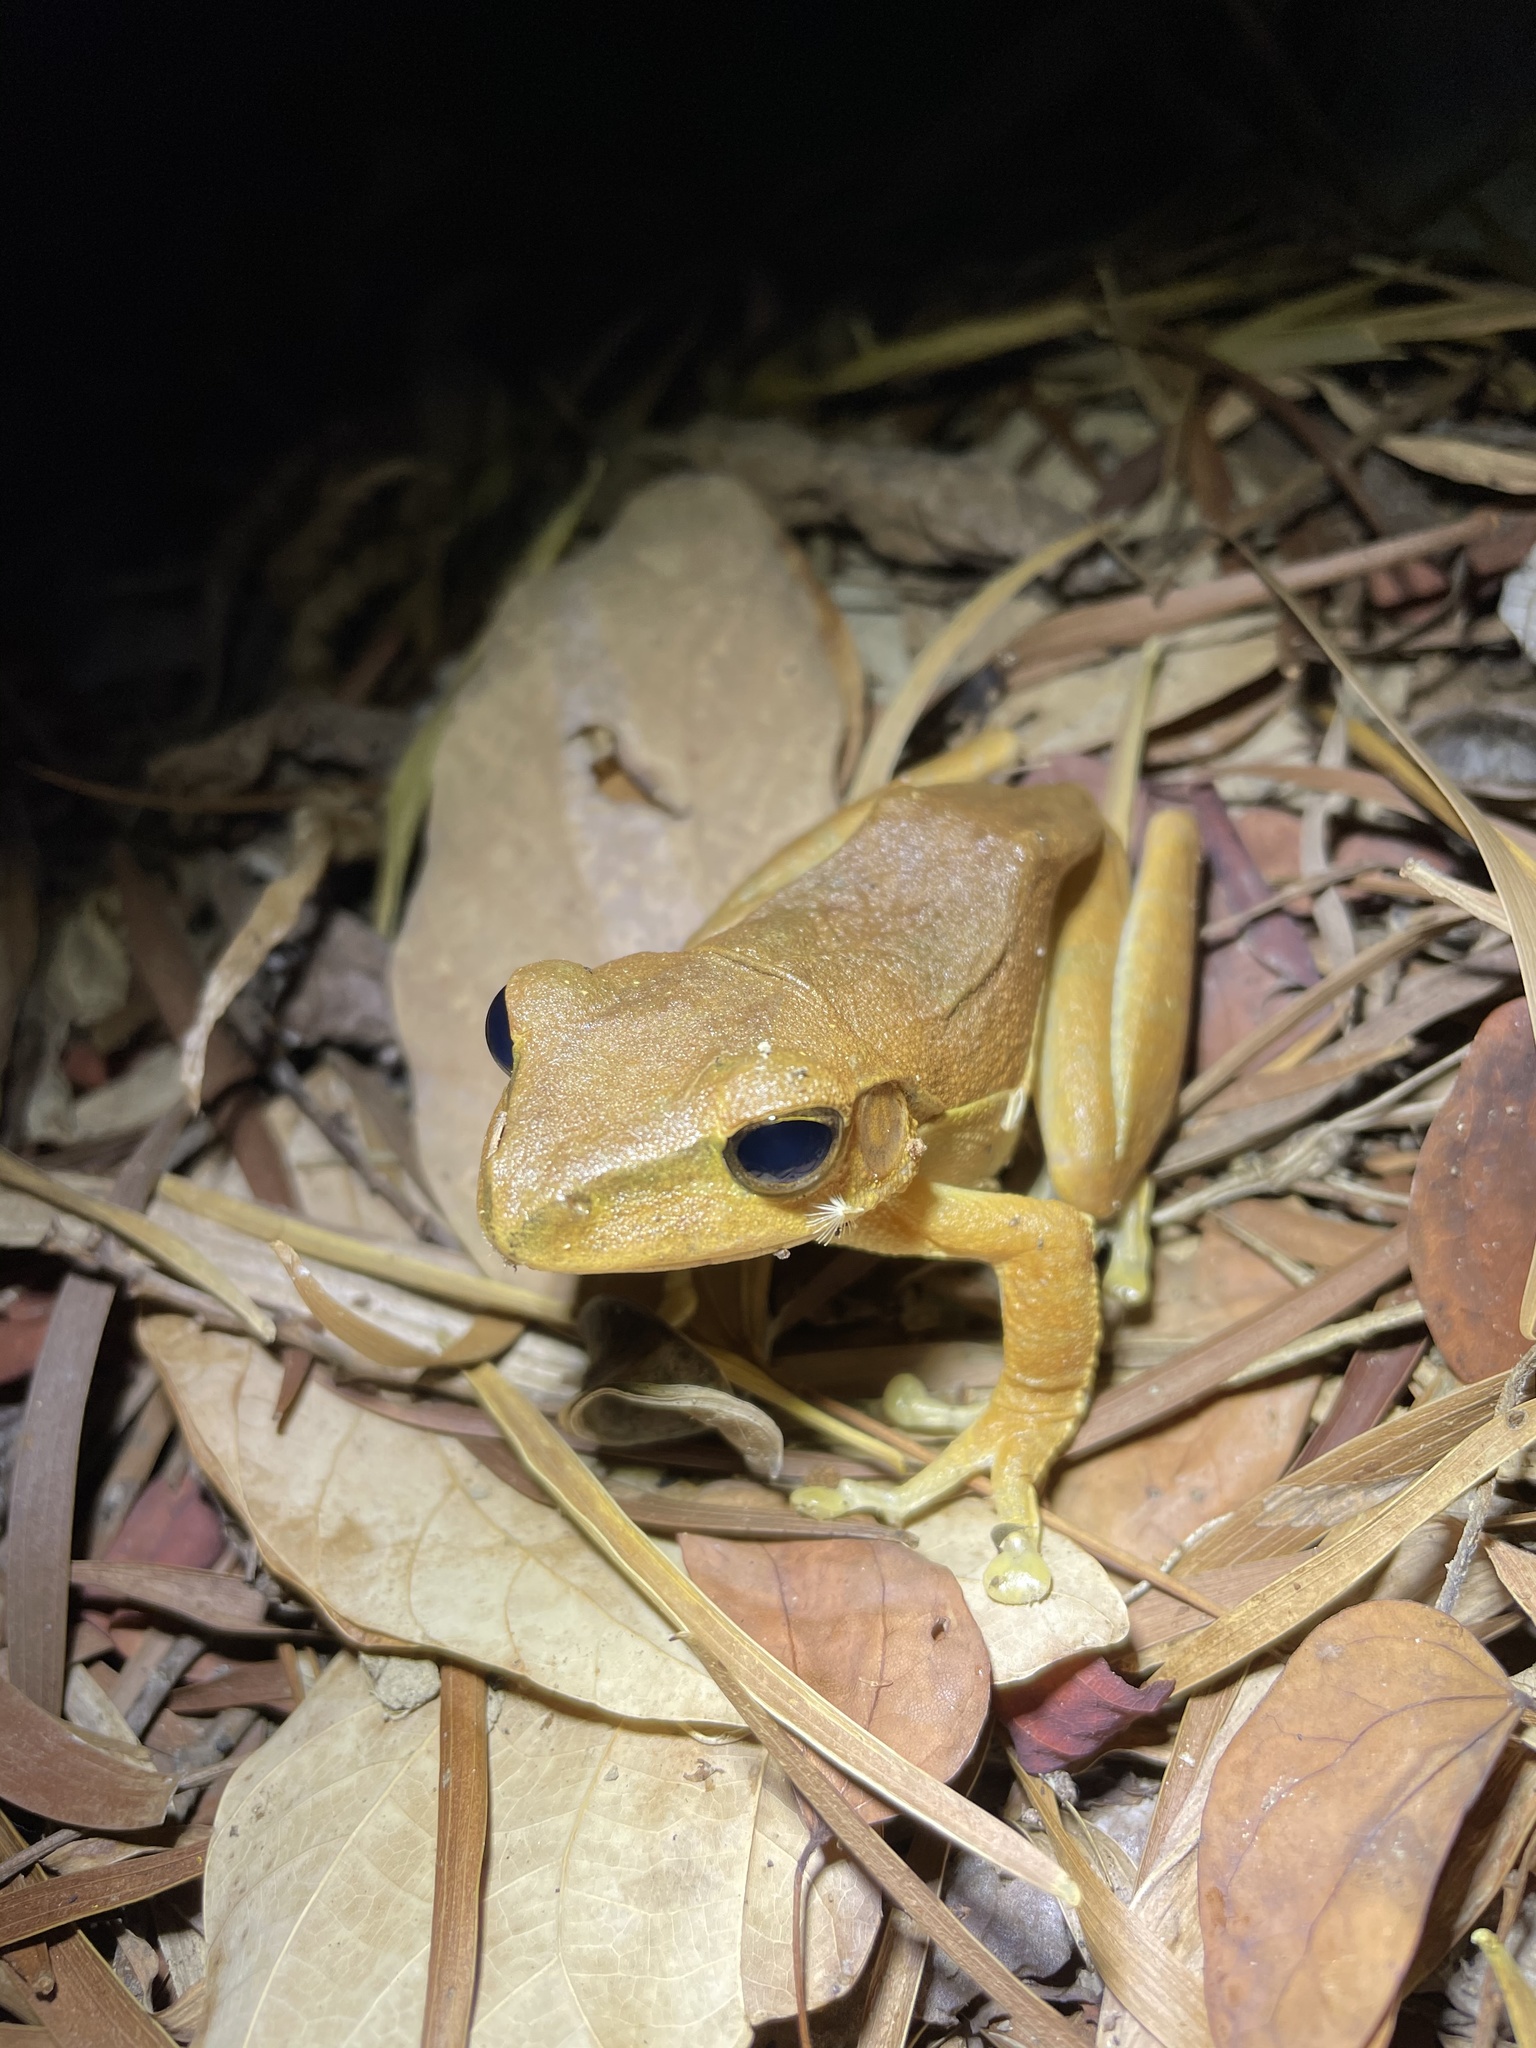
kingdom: Animalia
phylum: Chordata
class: Amphibia
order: Anura
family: Rhacophoridae
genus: Polypedates
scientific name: Polypedates megacephalus
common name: Hong kong whipping frog
